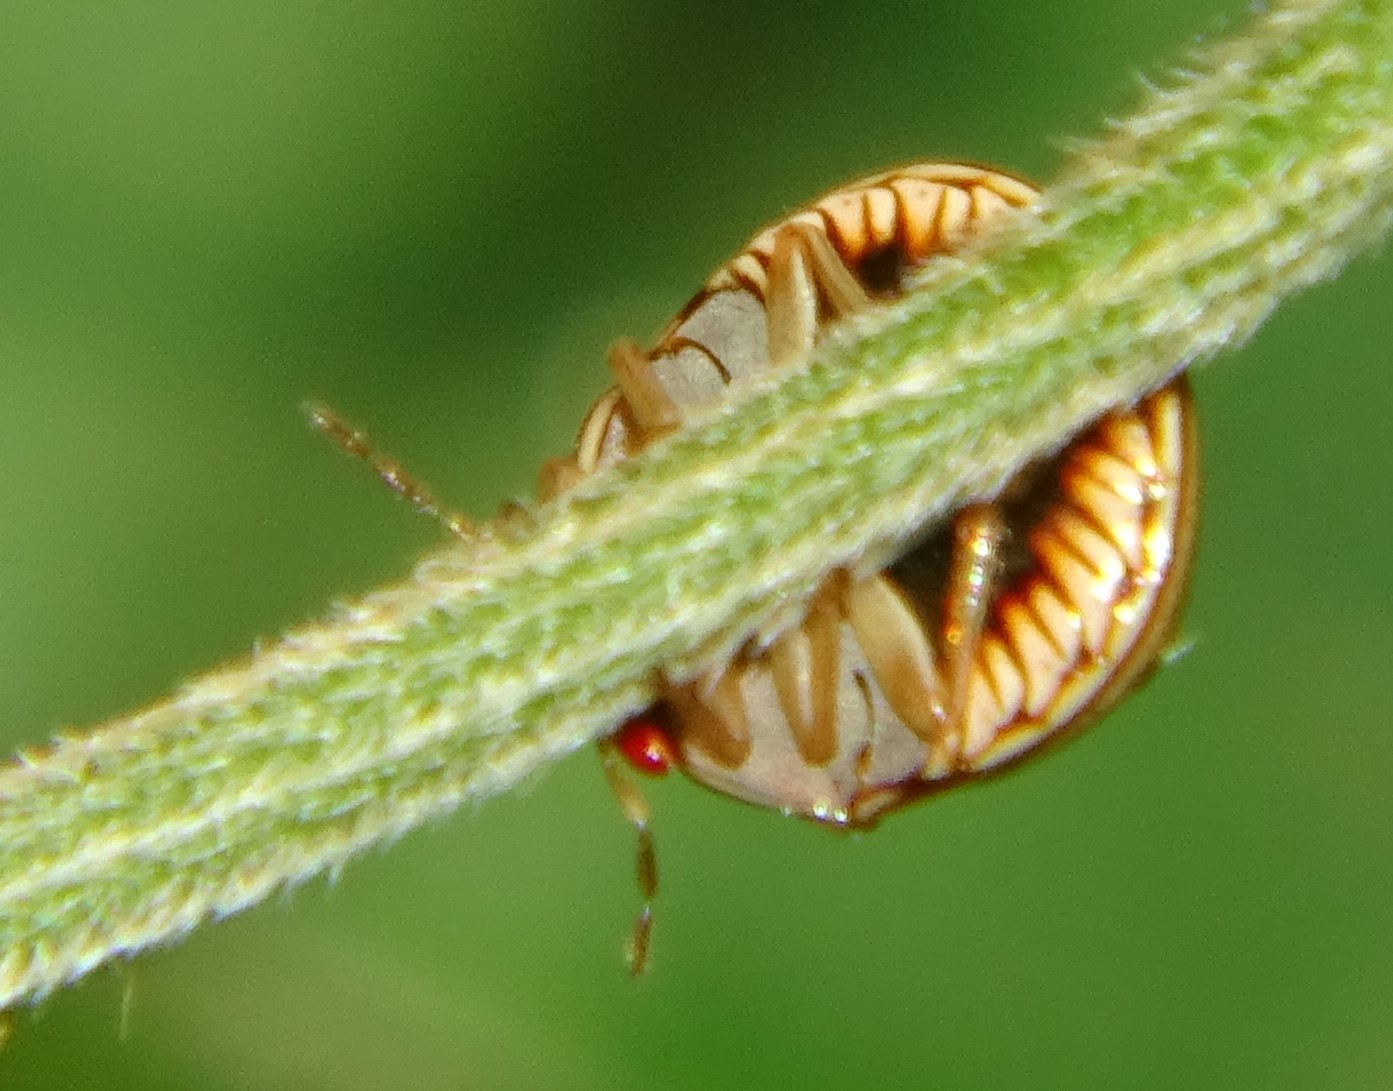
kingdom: Animalia
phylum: Arthropoda
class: Insecta
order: Hemiptera
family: Plataspidae
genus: Coptosoma
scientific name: Coptosoma
